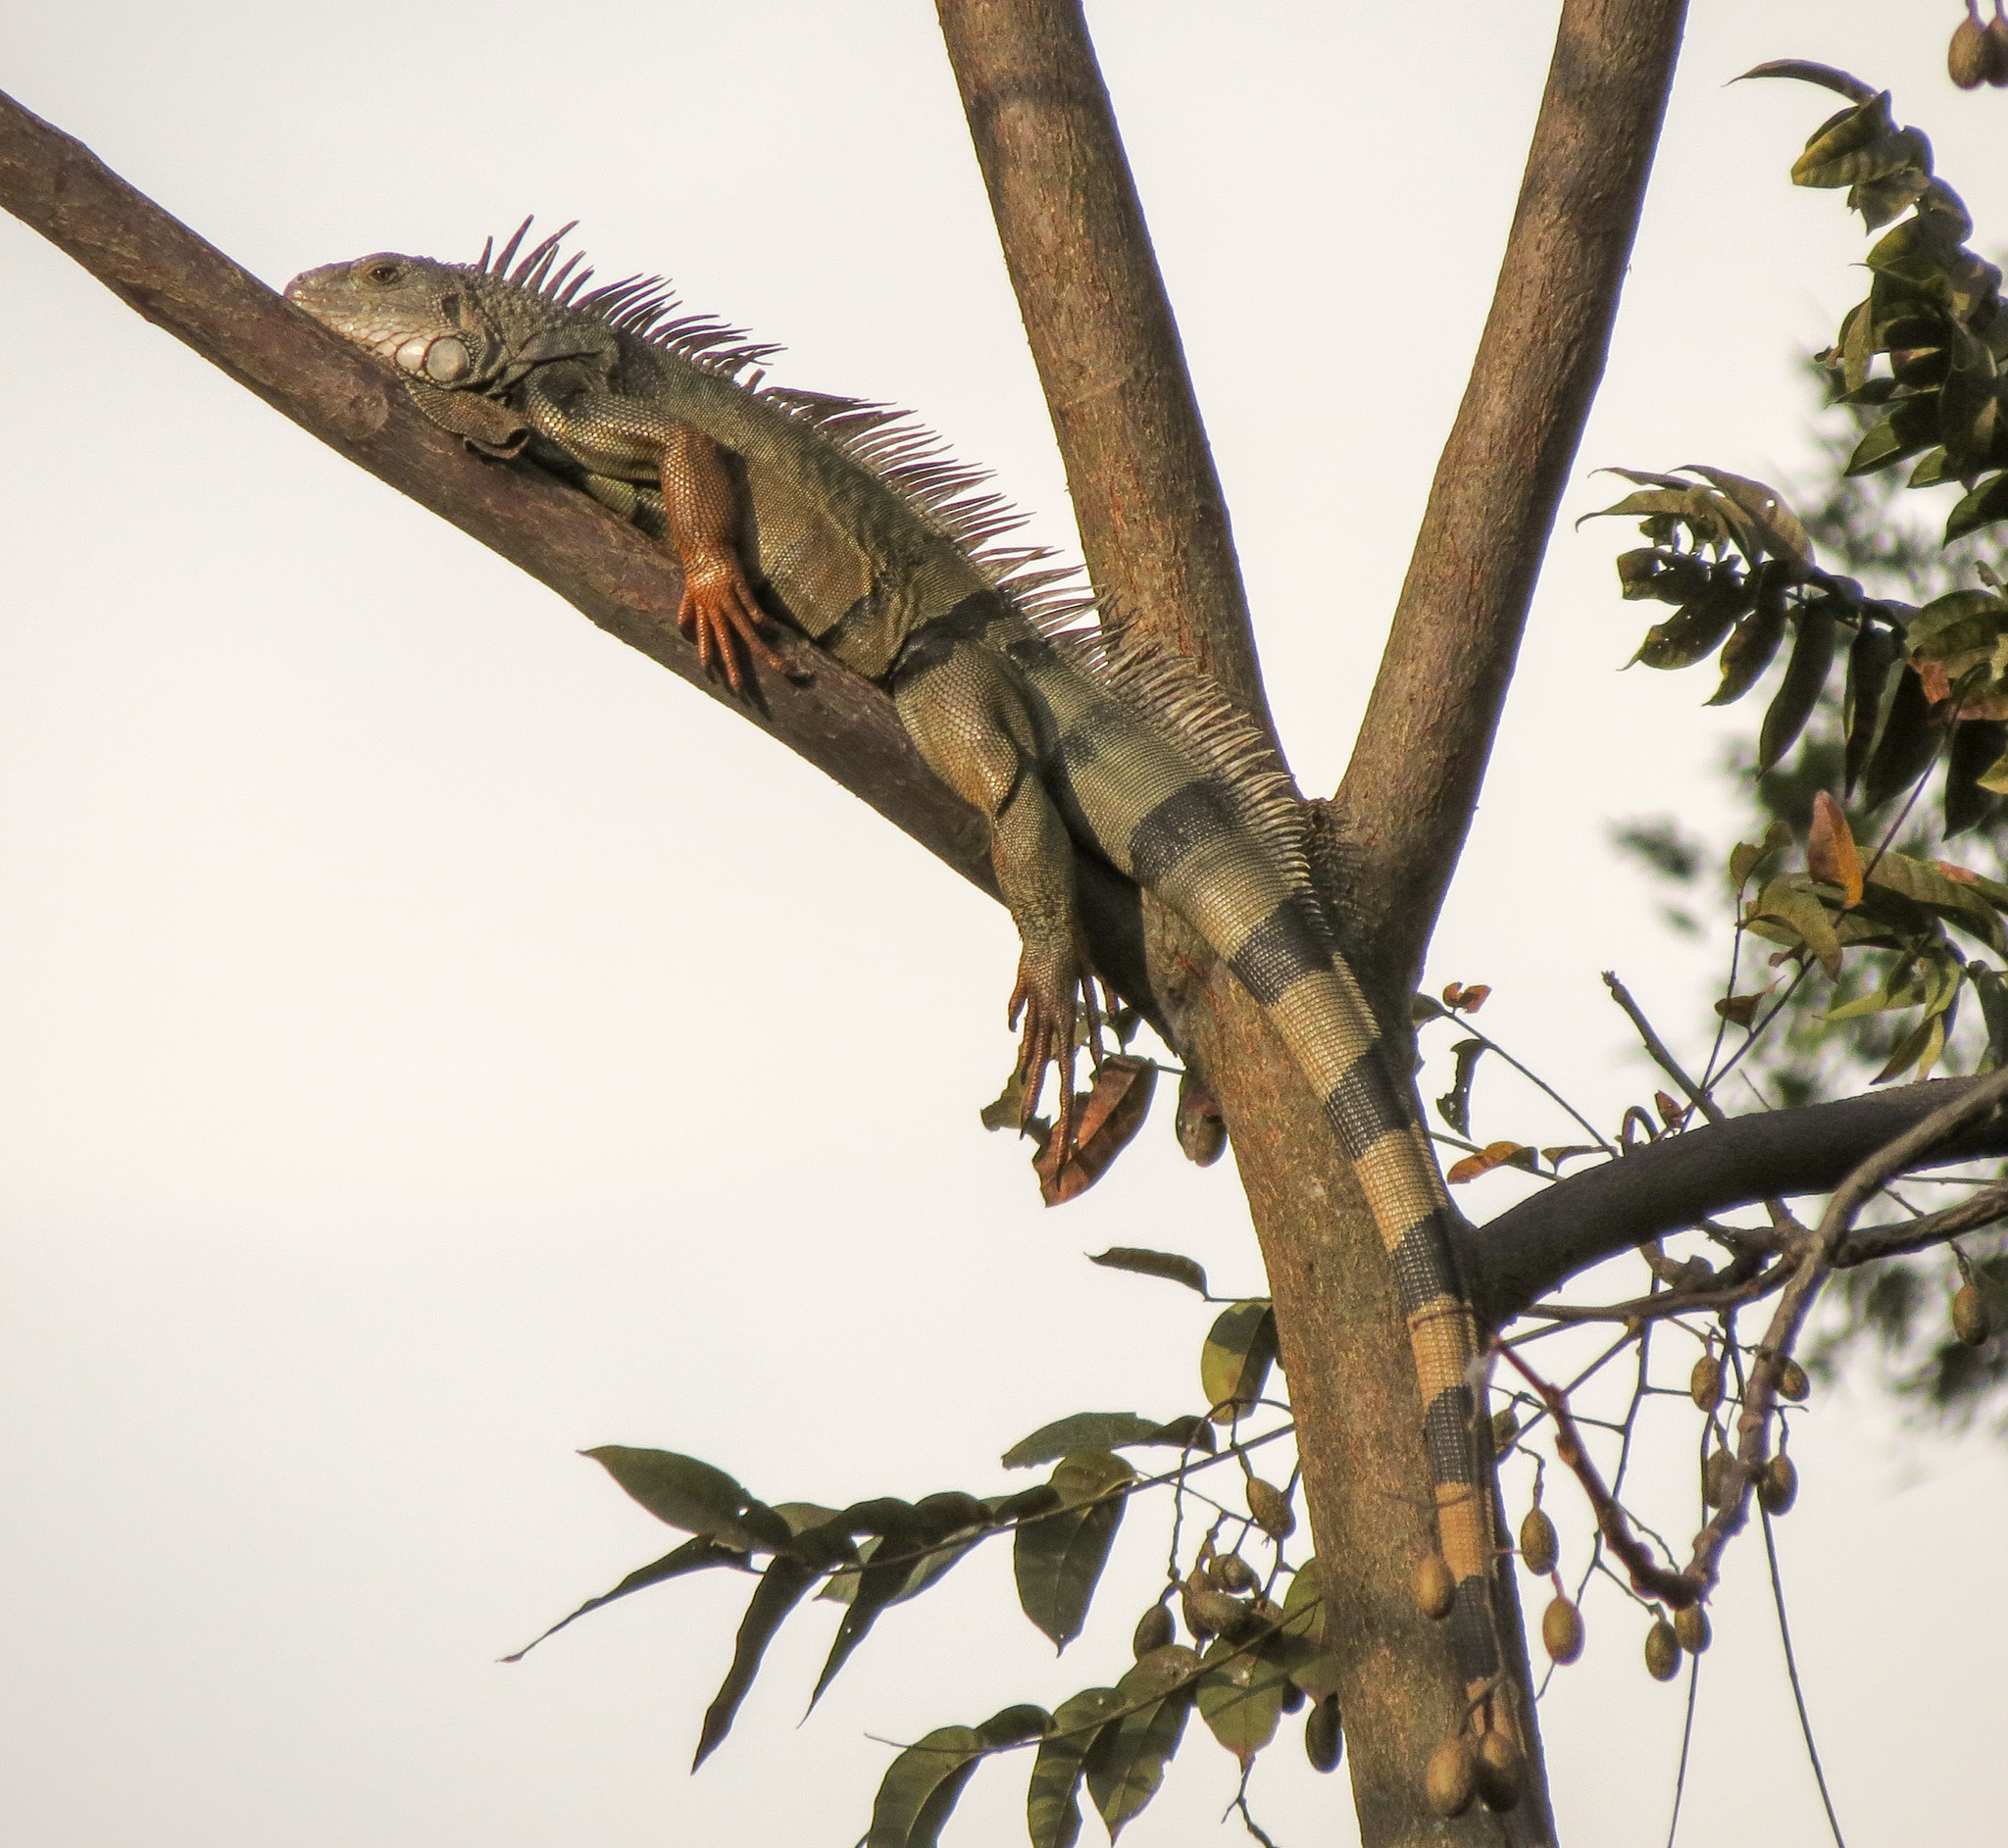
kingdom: Animalia
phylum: Chordata
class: Squamata
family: Iguanidae
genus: Iguana
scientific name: Iguana iguana
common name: Green iguana
